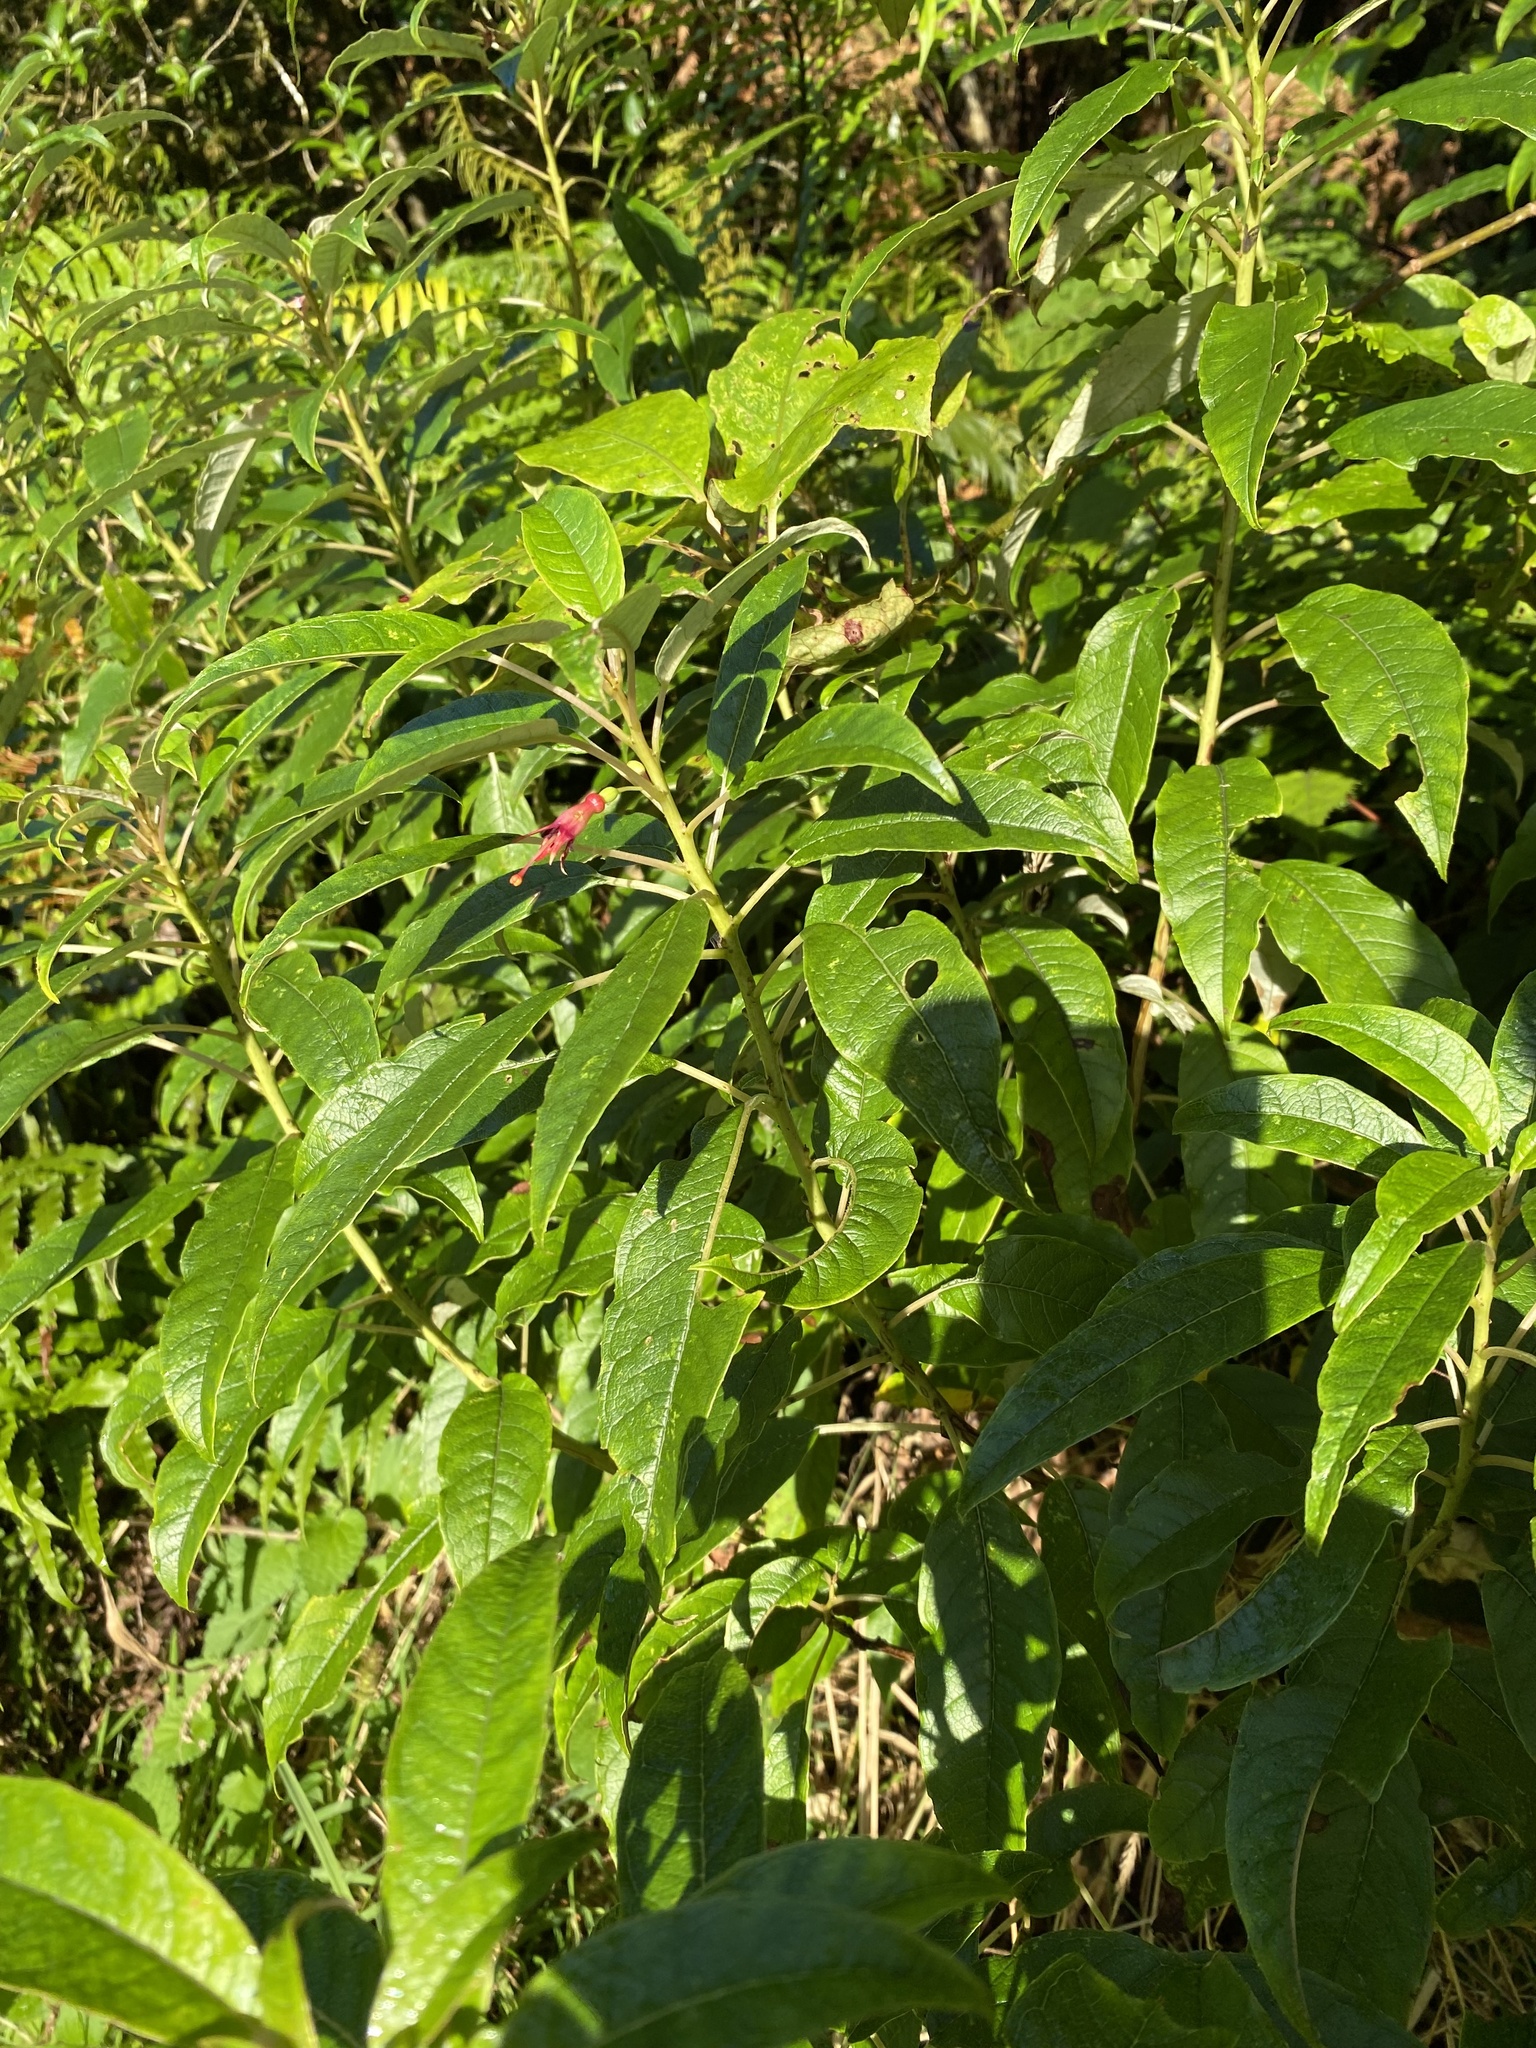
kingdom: Plantae
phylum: Tracheophyta
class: Magnoliopsida
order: Myrtales
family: Onagraceae
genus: Fuchsia
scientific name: Fuchsia excorticata
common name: Tree fuchsia
